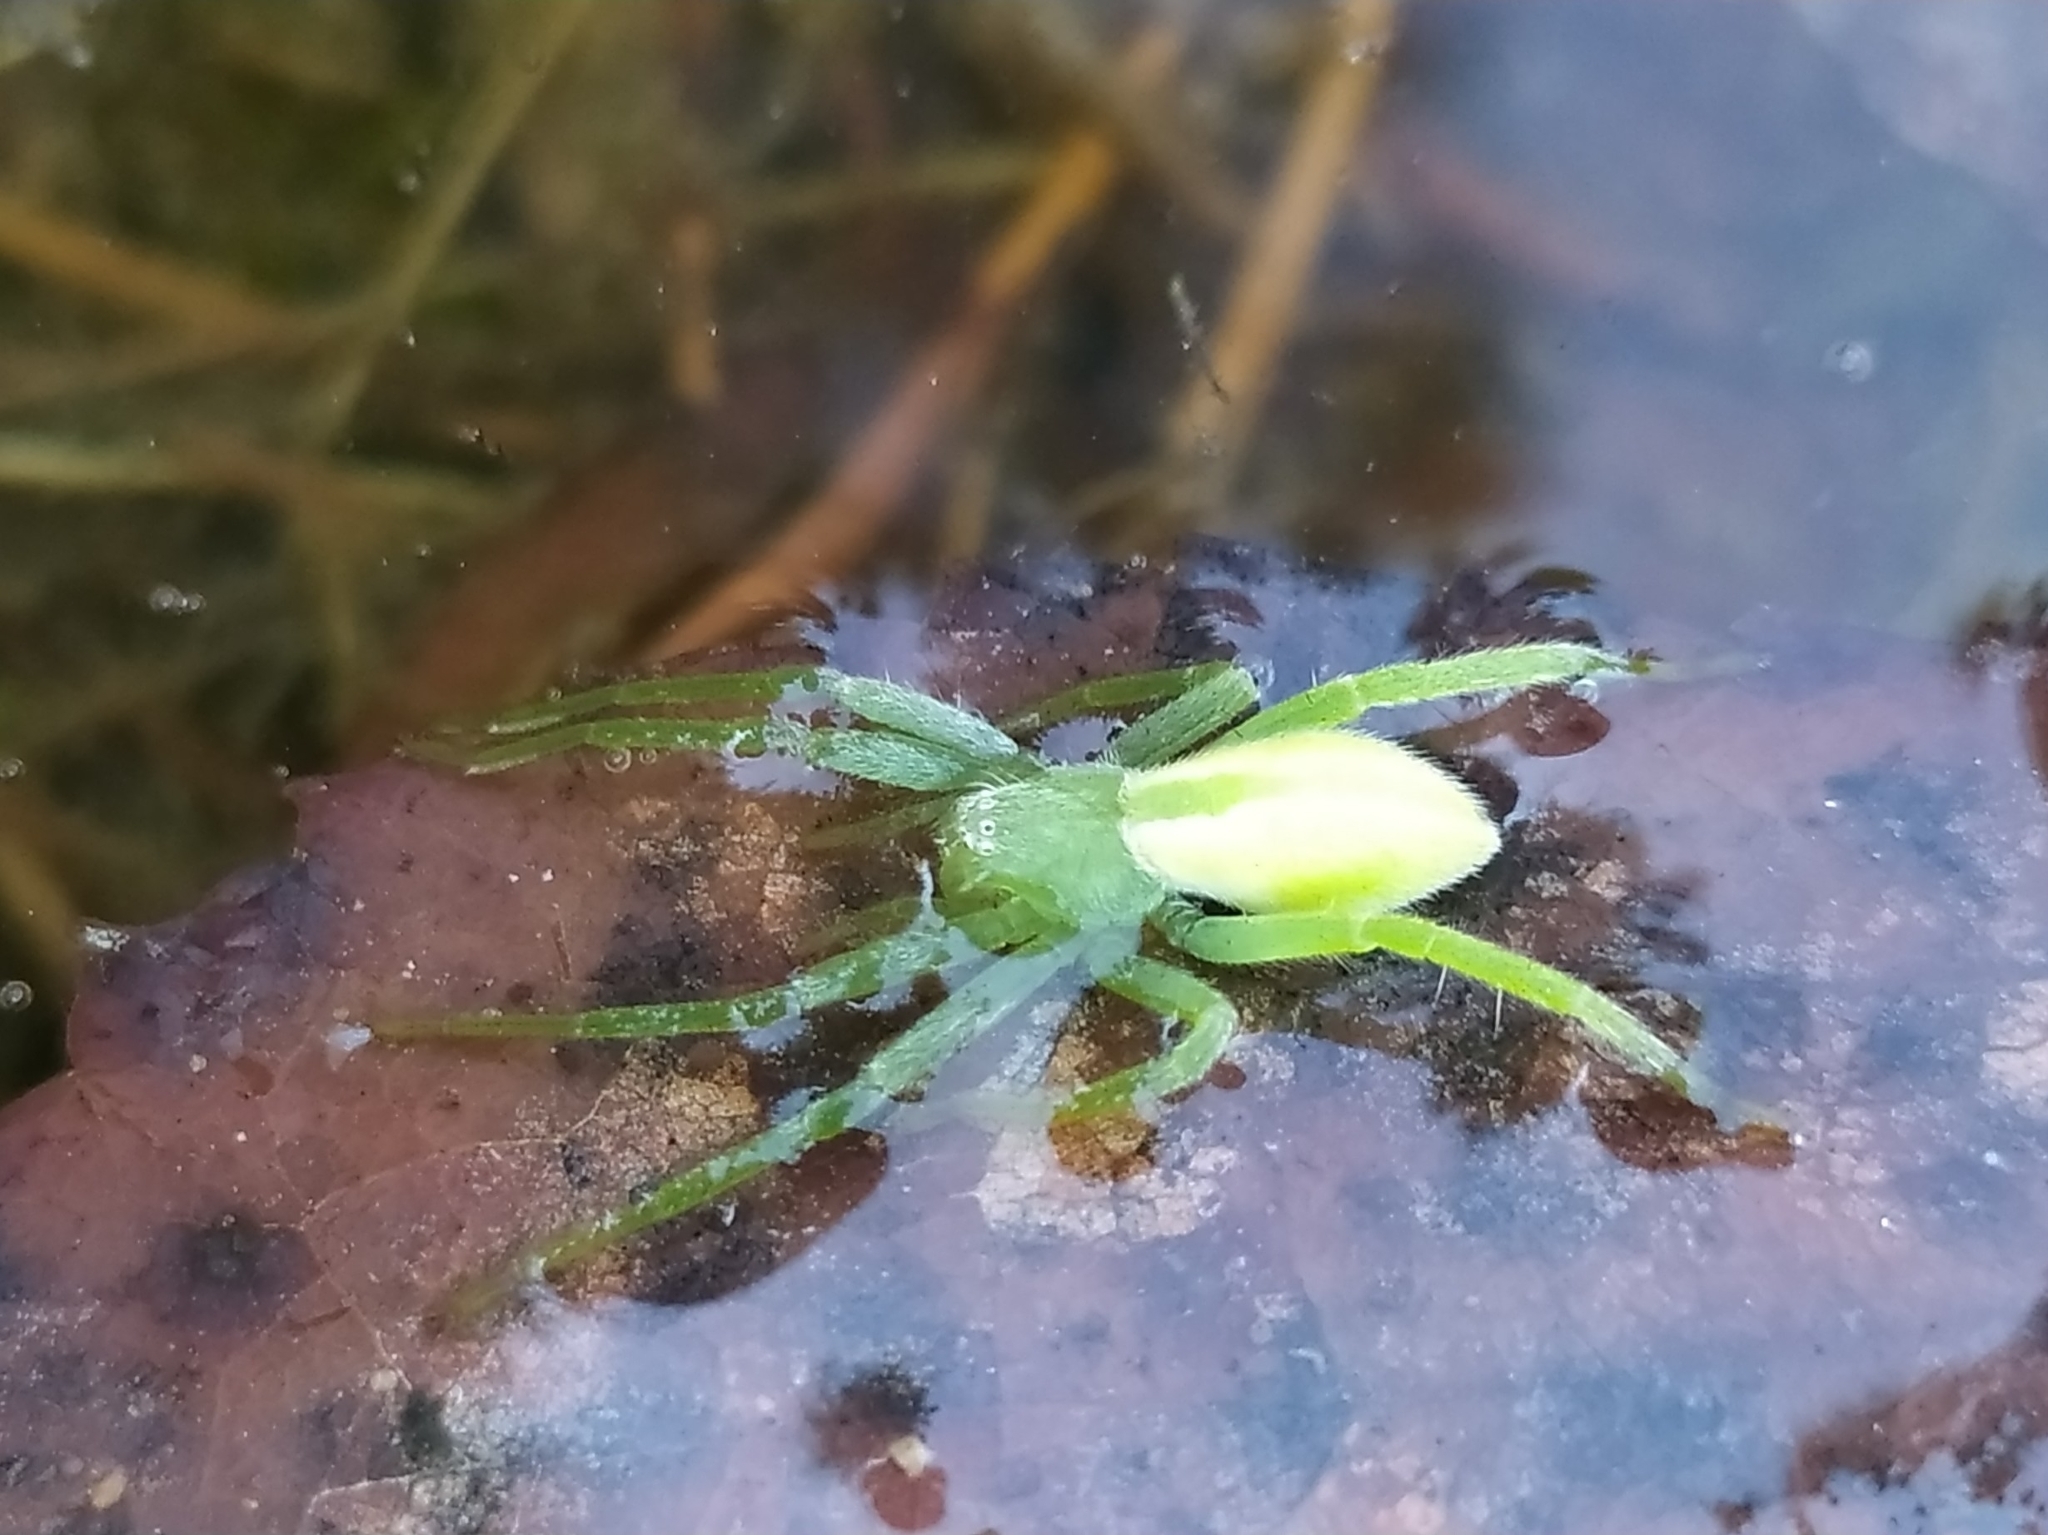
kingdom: Animalia
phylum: Arthropoda
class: Arachnida
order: Araneae
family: Sparassidae
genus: Micrommata
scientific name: Micrommata virescens
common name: Green spider
